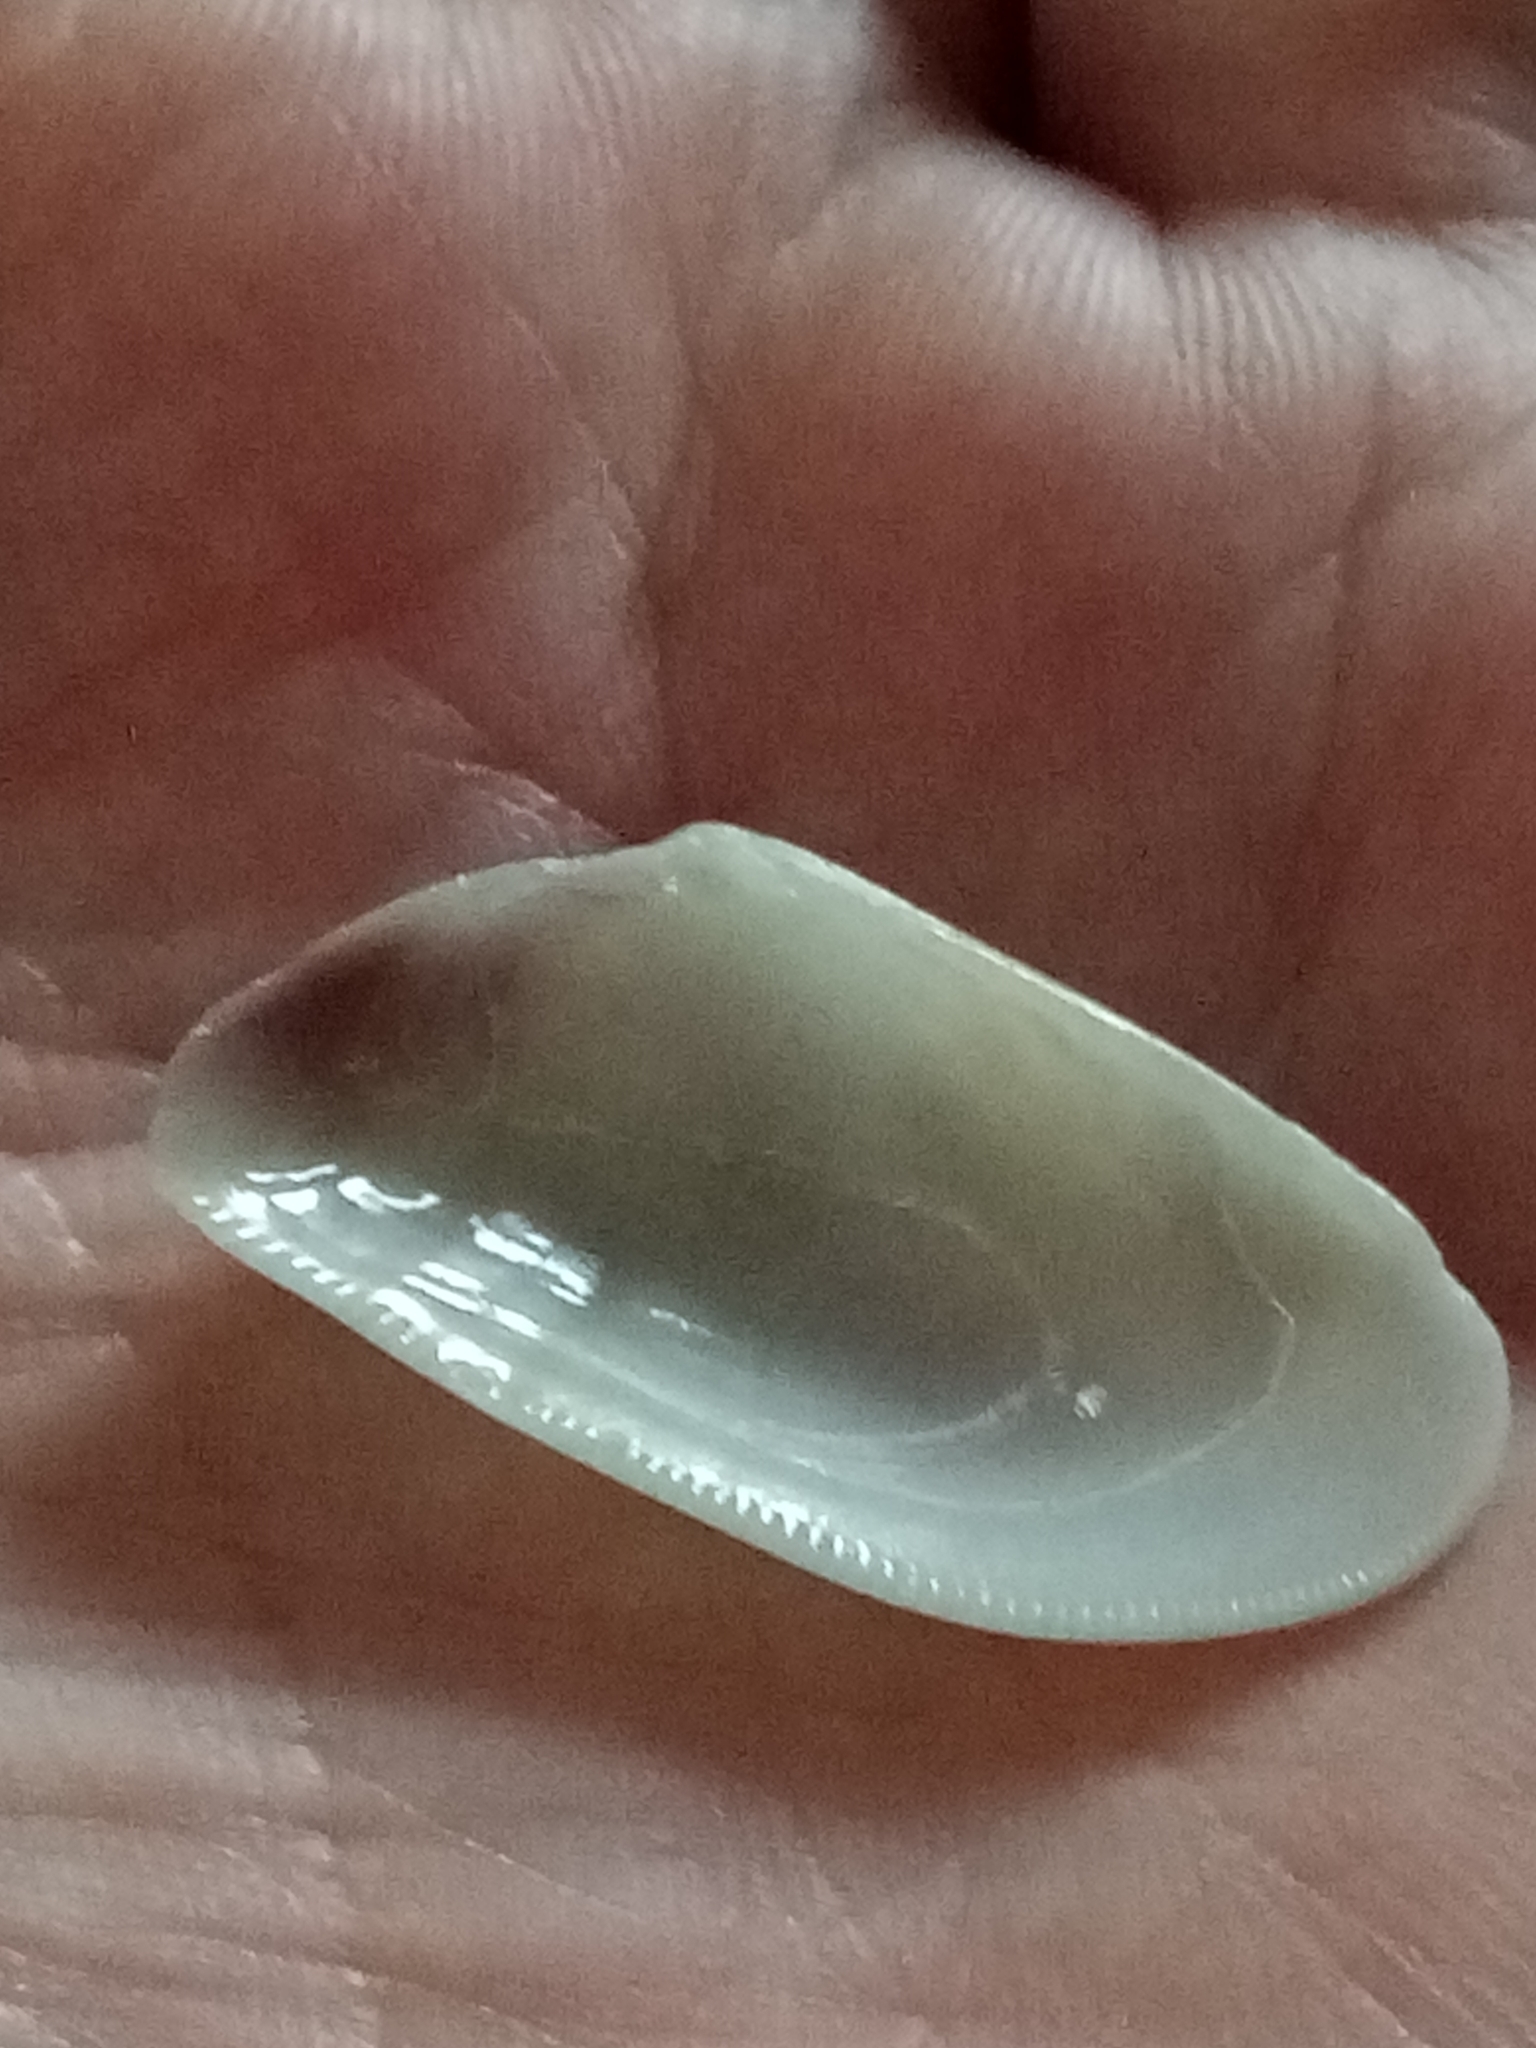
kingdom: Animalia
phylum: Mollusca
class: Bivalvia
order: Cardiida
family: Donacidae
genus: Donax
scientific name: Donax trunculus
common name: Truncate donax
